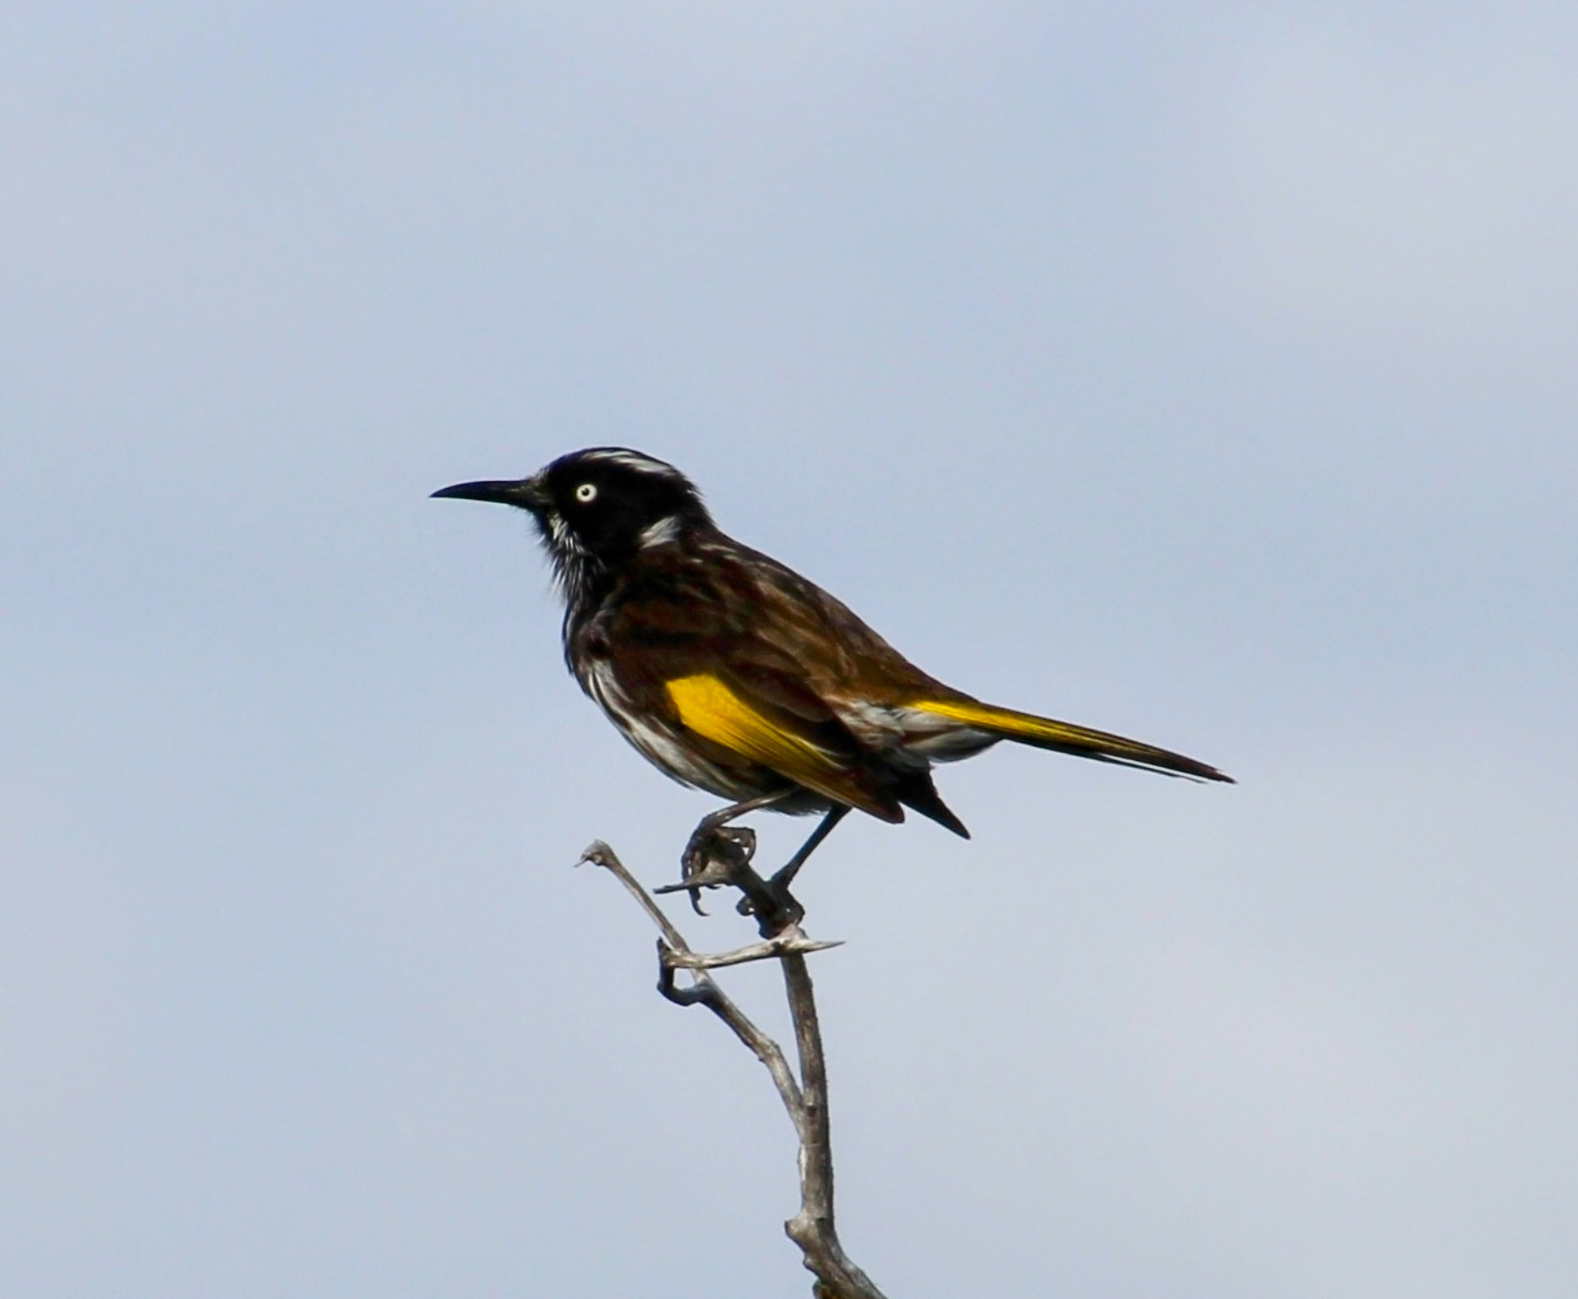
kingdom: Animalia
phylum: Chordata
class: Aves
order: Passeriformes
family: Meliphagidae
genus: Phylidonyris
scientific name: Phylidonyris novaehollandiae
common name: New holland honeyeater
